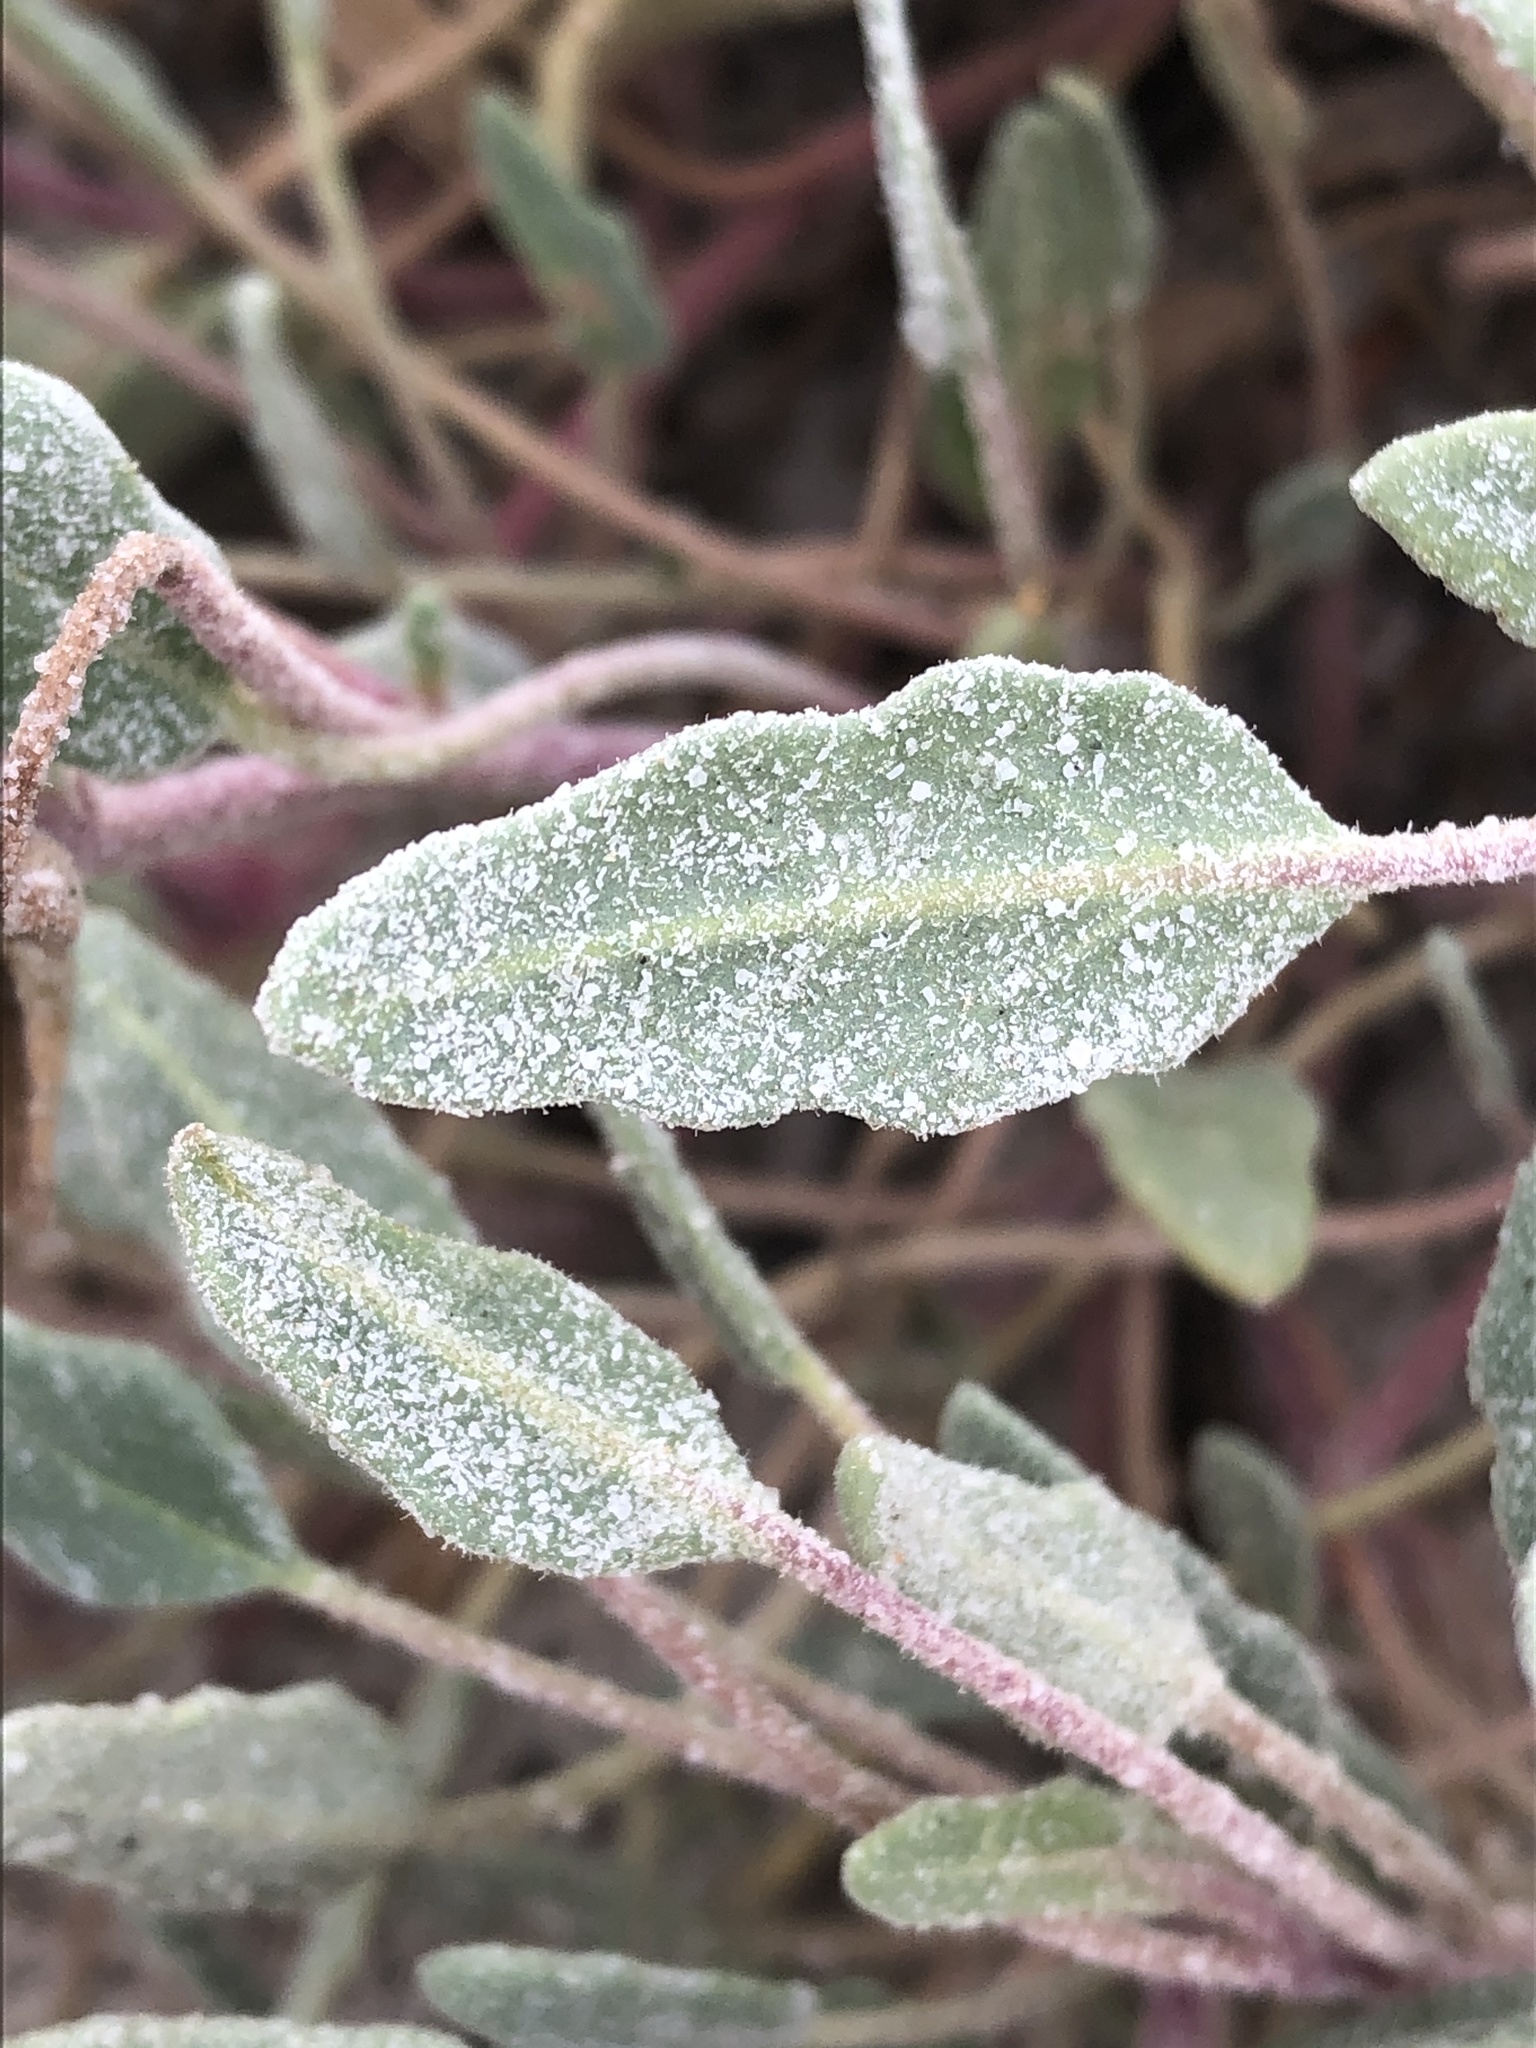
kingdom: Plantae
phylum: Tracheophyta
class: Magnoliopsida
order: Caryophyllales
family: Nyctaginaceae
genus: Abronia
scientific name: Abronia angustifolia
